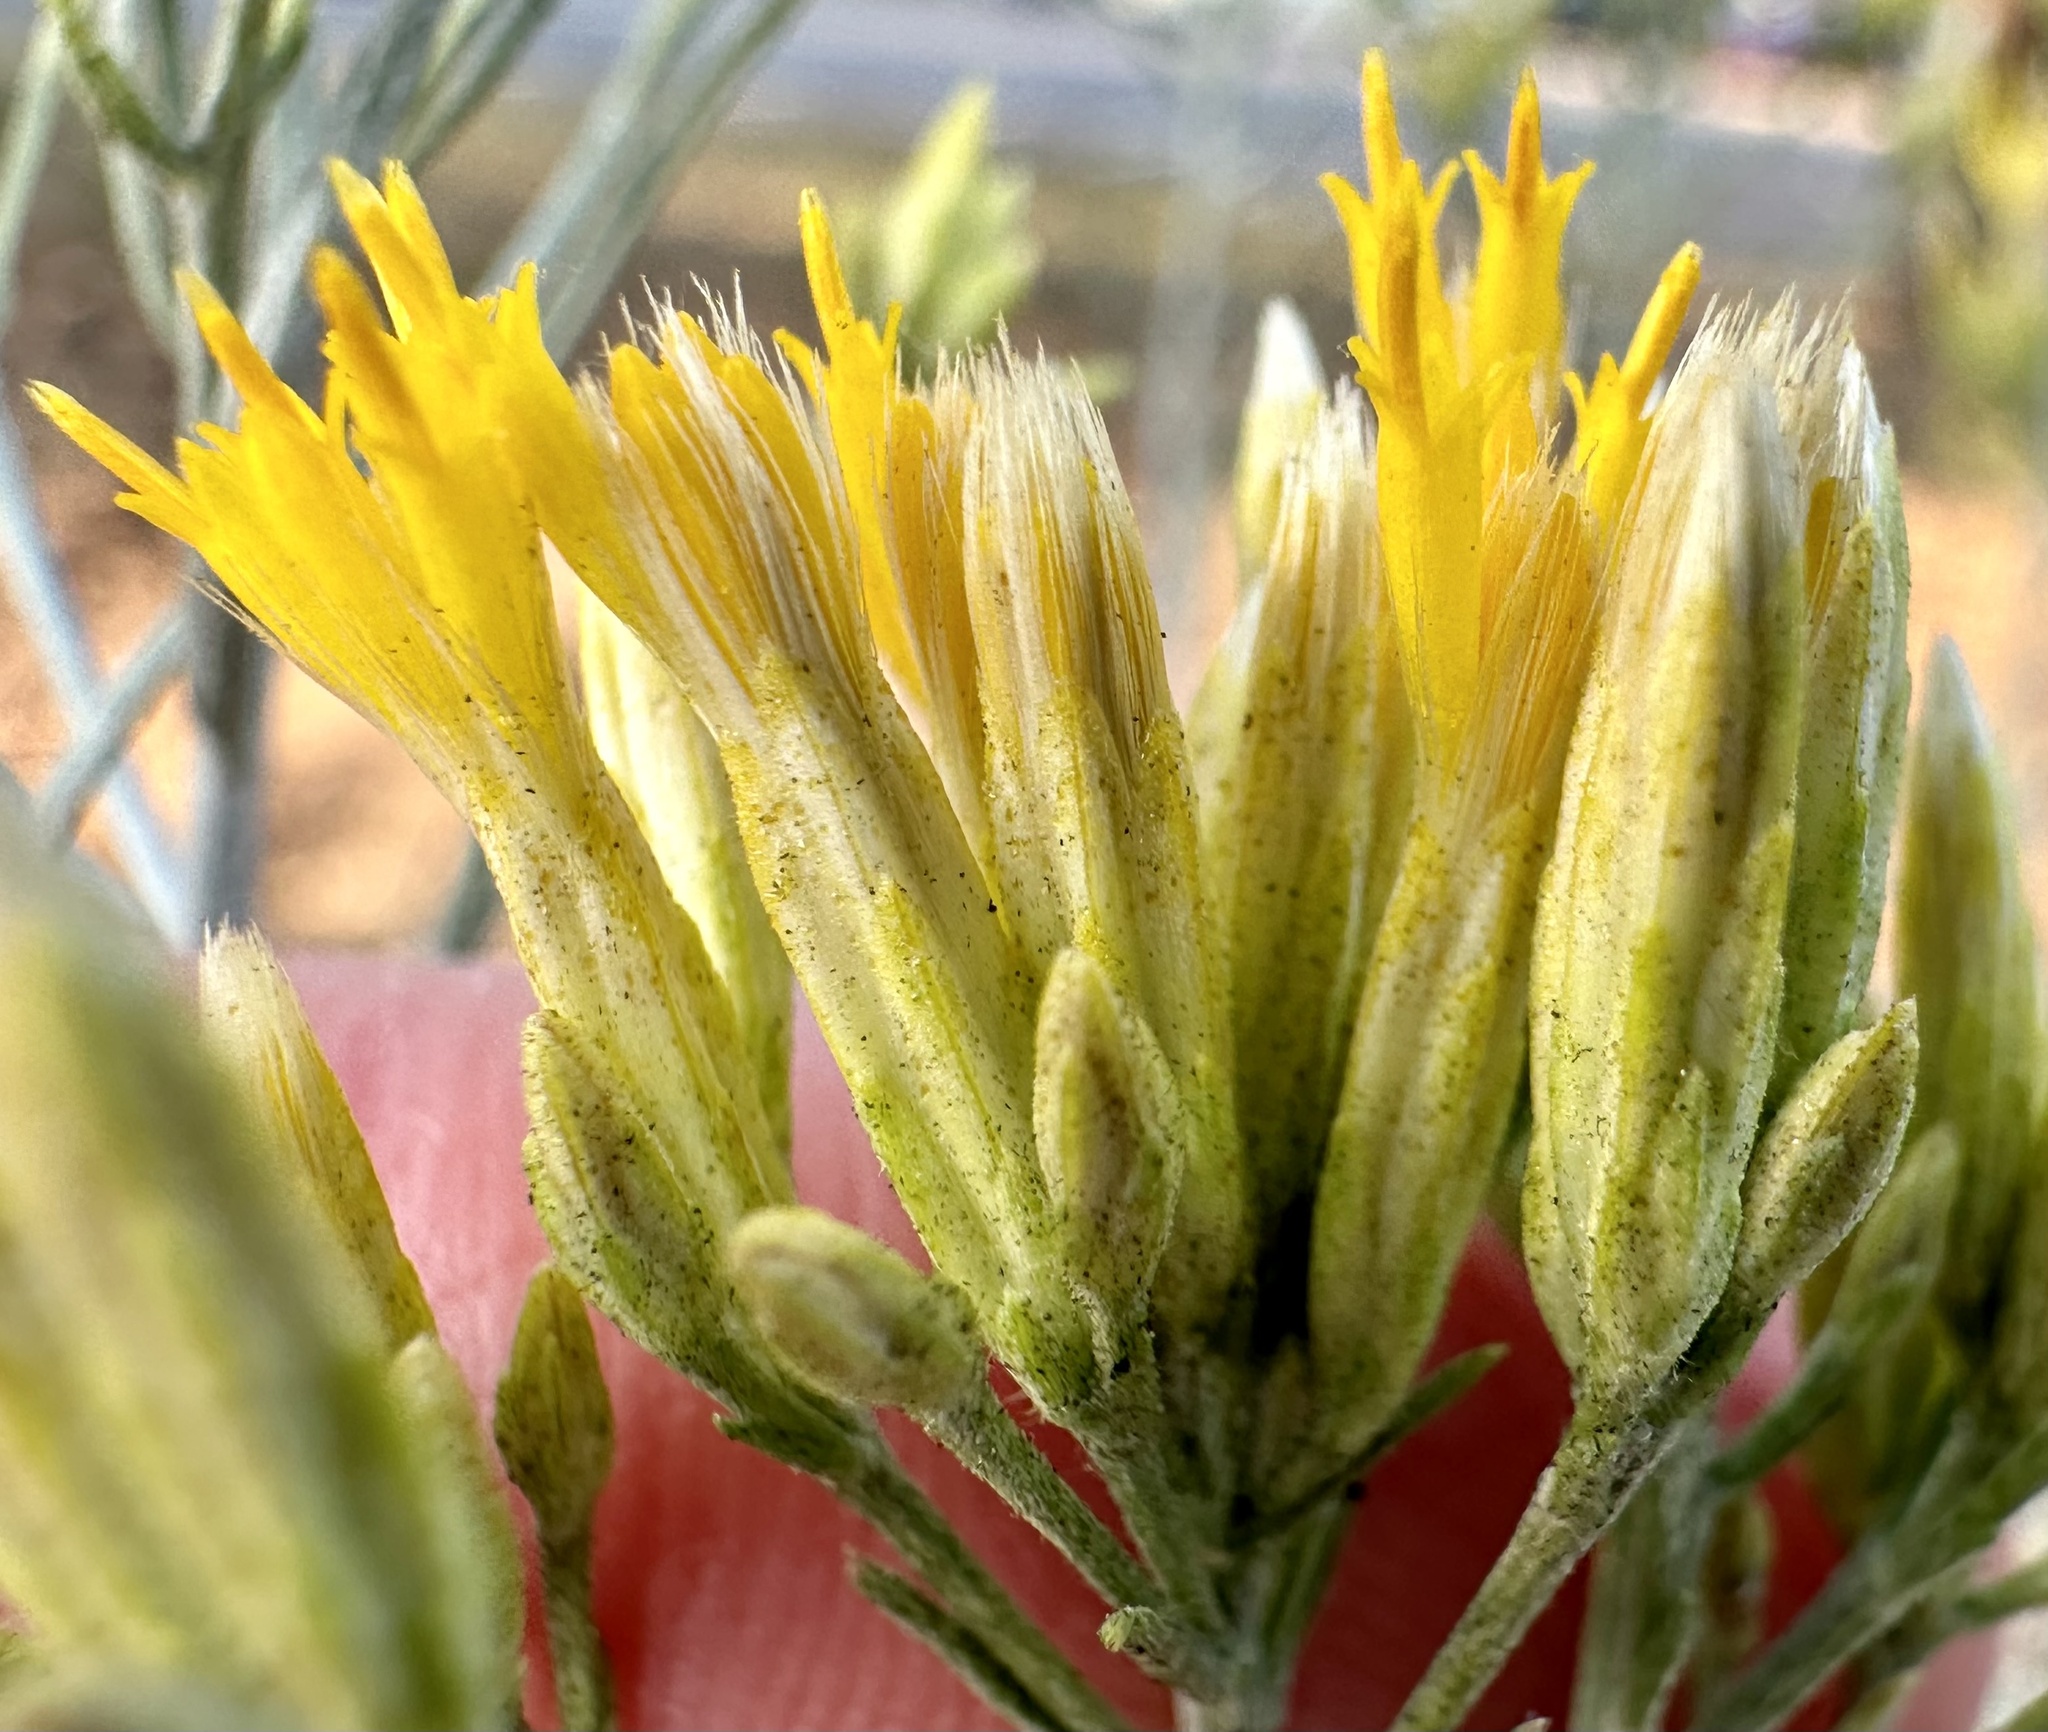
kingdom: Plantae
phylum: Tracheophyta
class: Magnoliopsida
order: Asterales
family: Asteraceae
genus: Ericameria
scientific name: Ericameria nauseosa
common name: Rubber rabbitbrush
